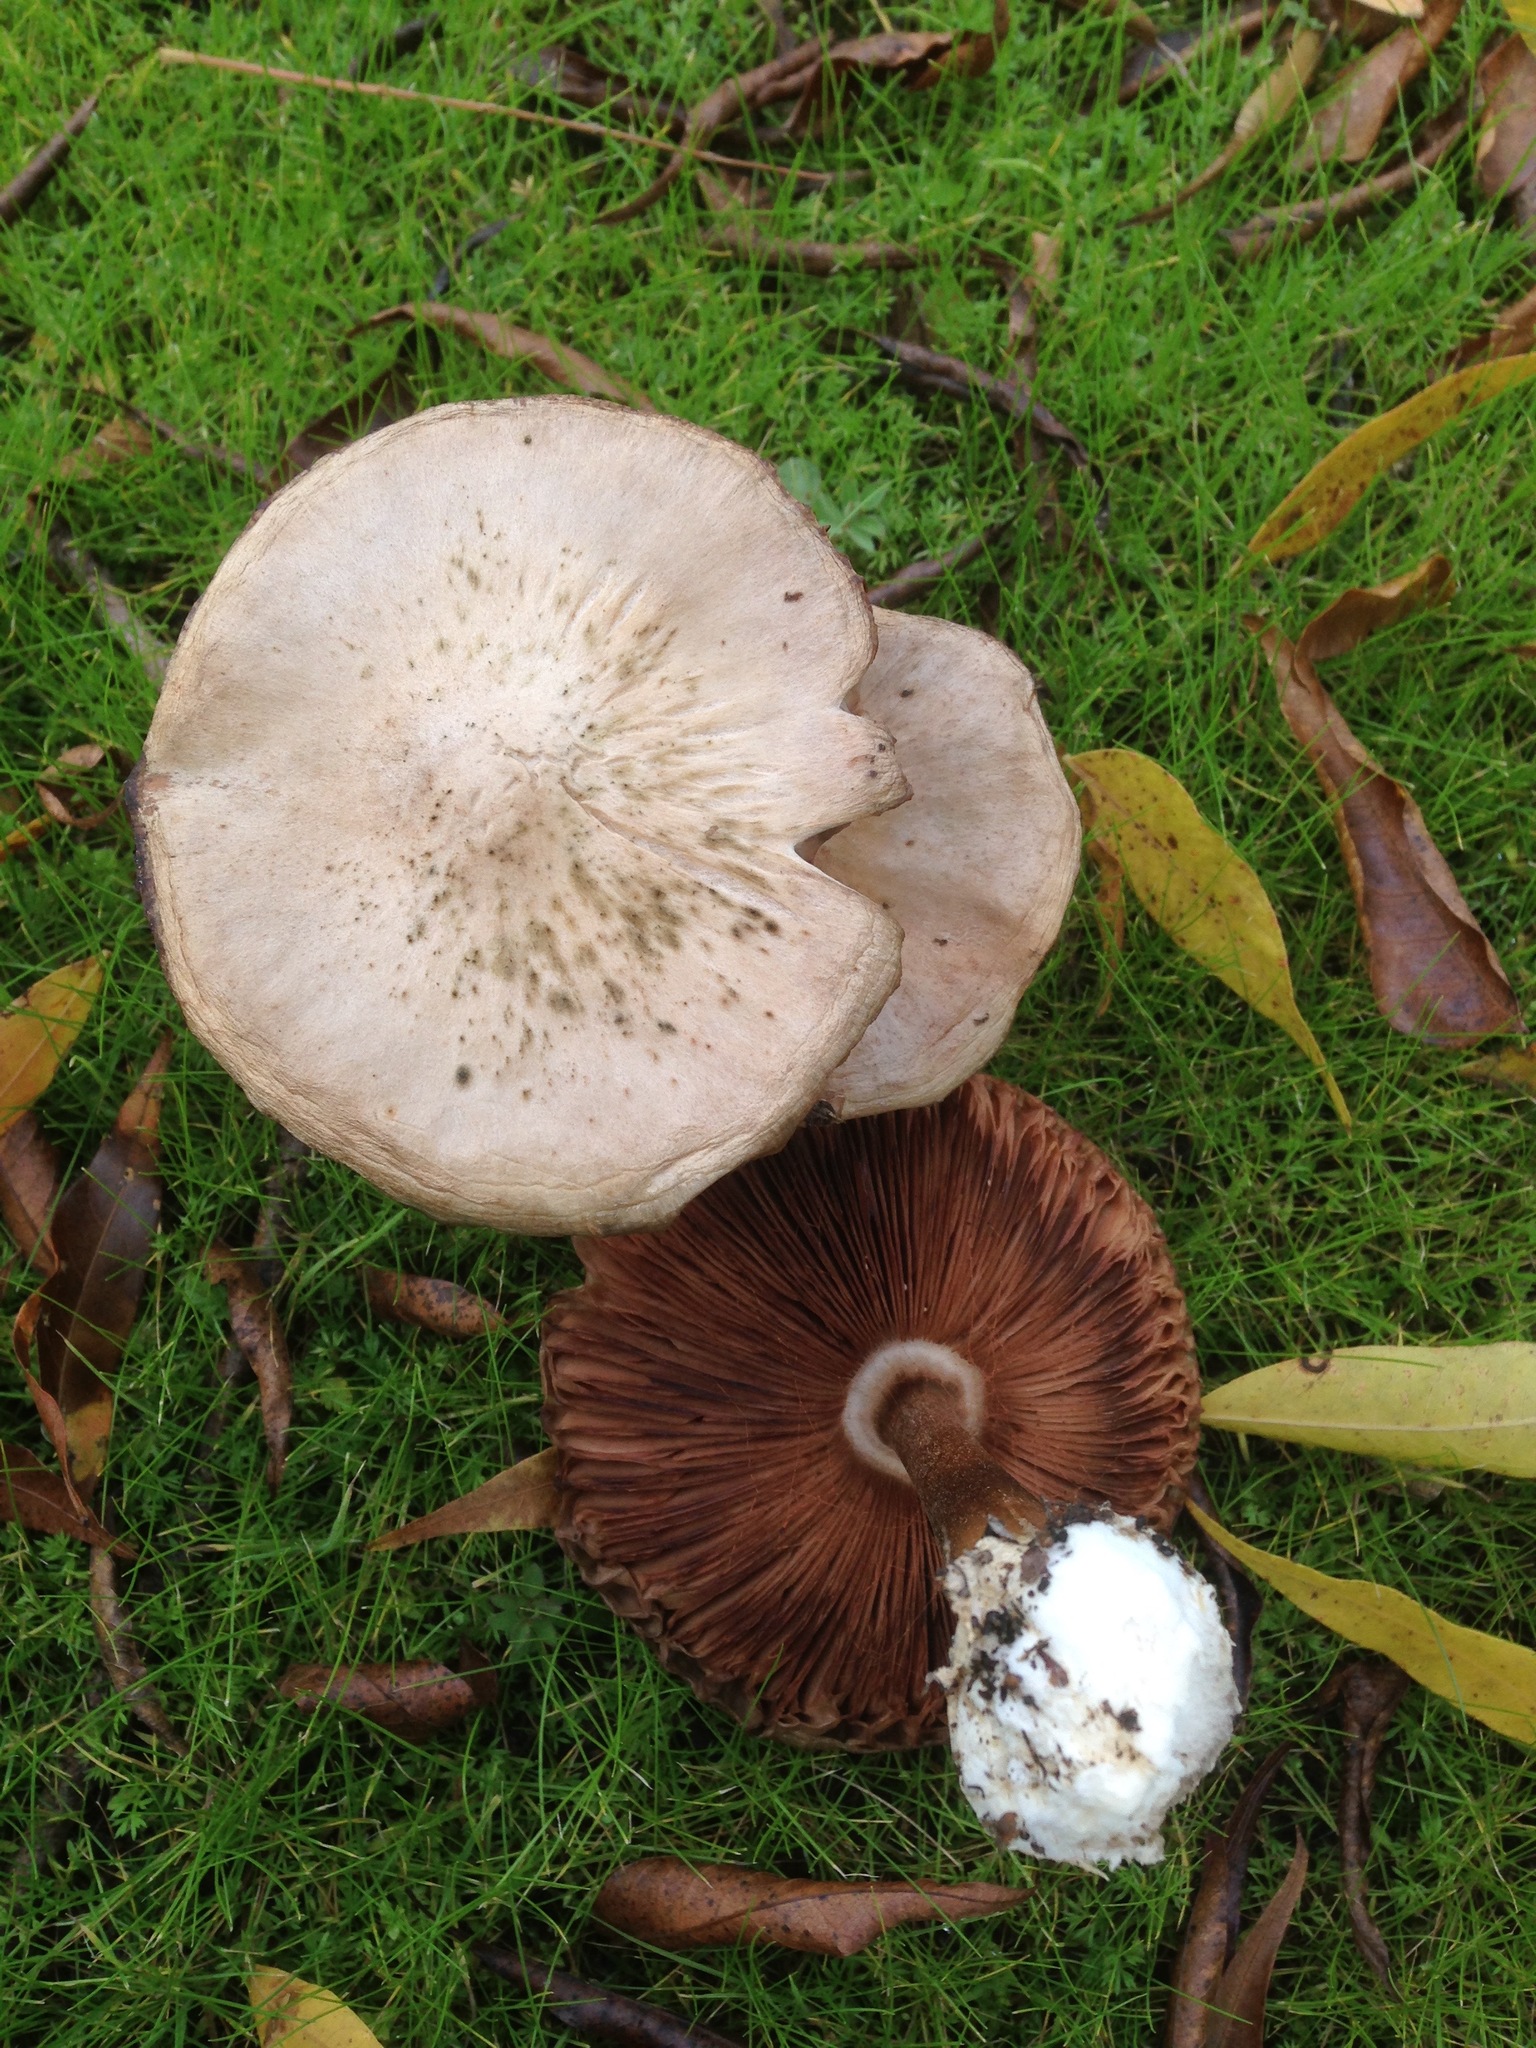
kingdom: Fungi
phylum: Basidiomycota
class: Agaricomycetes
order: Agaricales
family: Pluteaceae
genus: Volvopluteus
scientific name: Volvopluteus gloiocephalus
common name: Stubble rosegill
